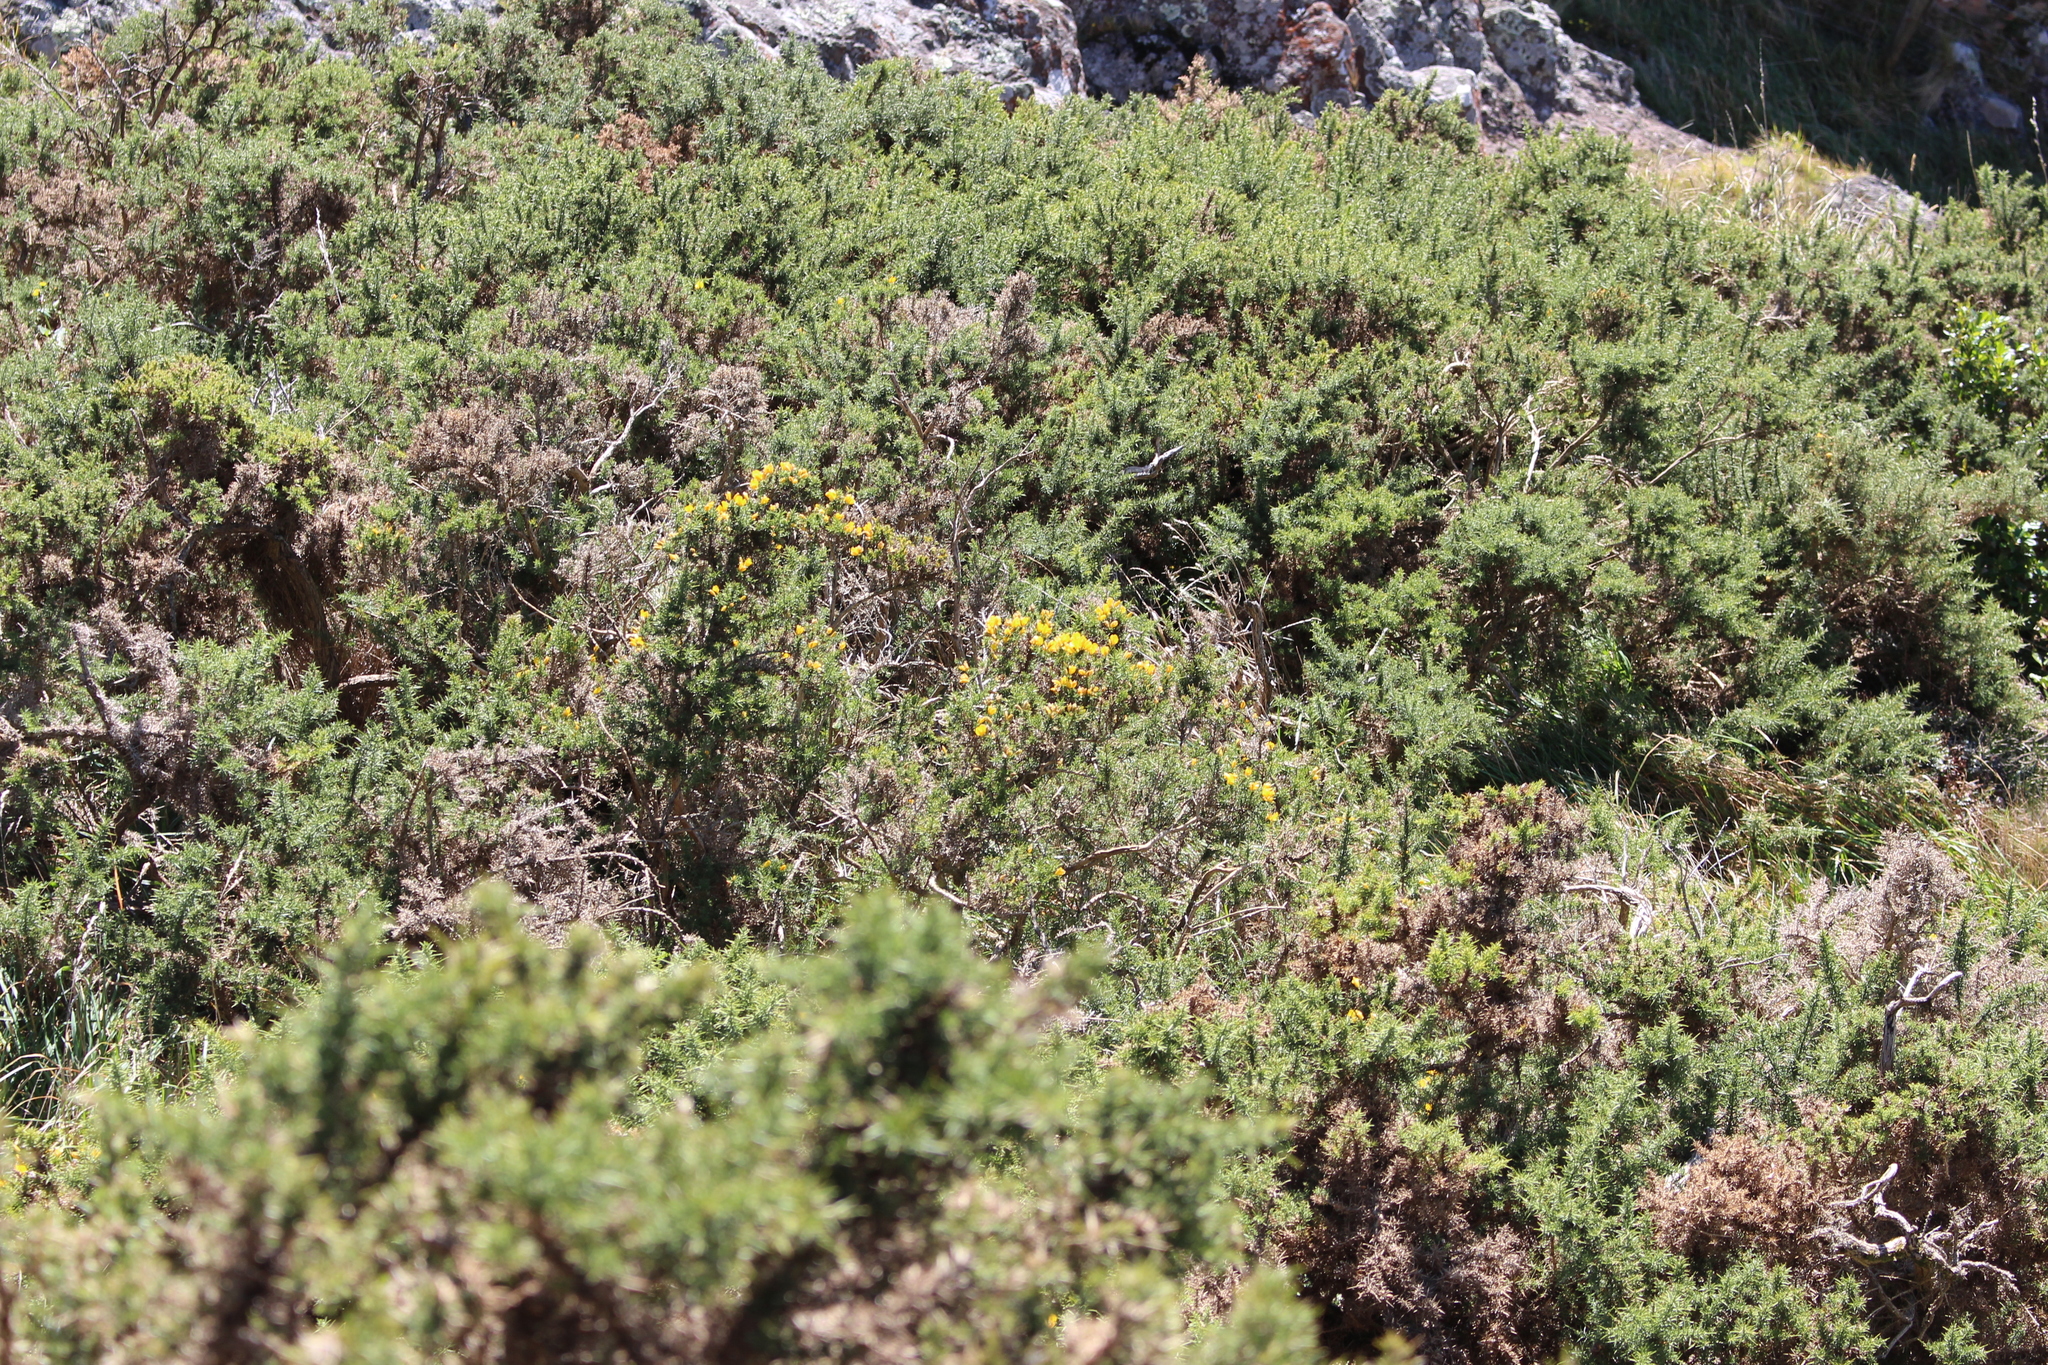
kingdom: Plantae
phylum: Tracheophyta
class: Magnoliopsida
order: Fabales
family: Fabaceae
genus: Ulex
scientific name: Ulex europaeus
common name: Common gorse
